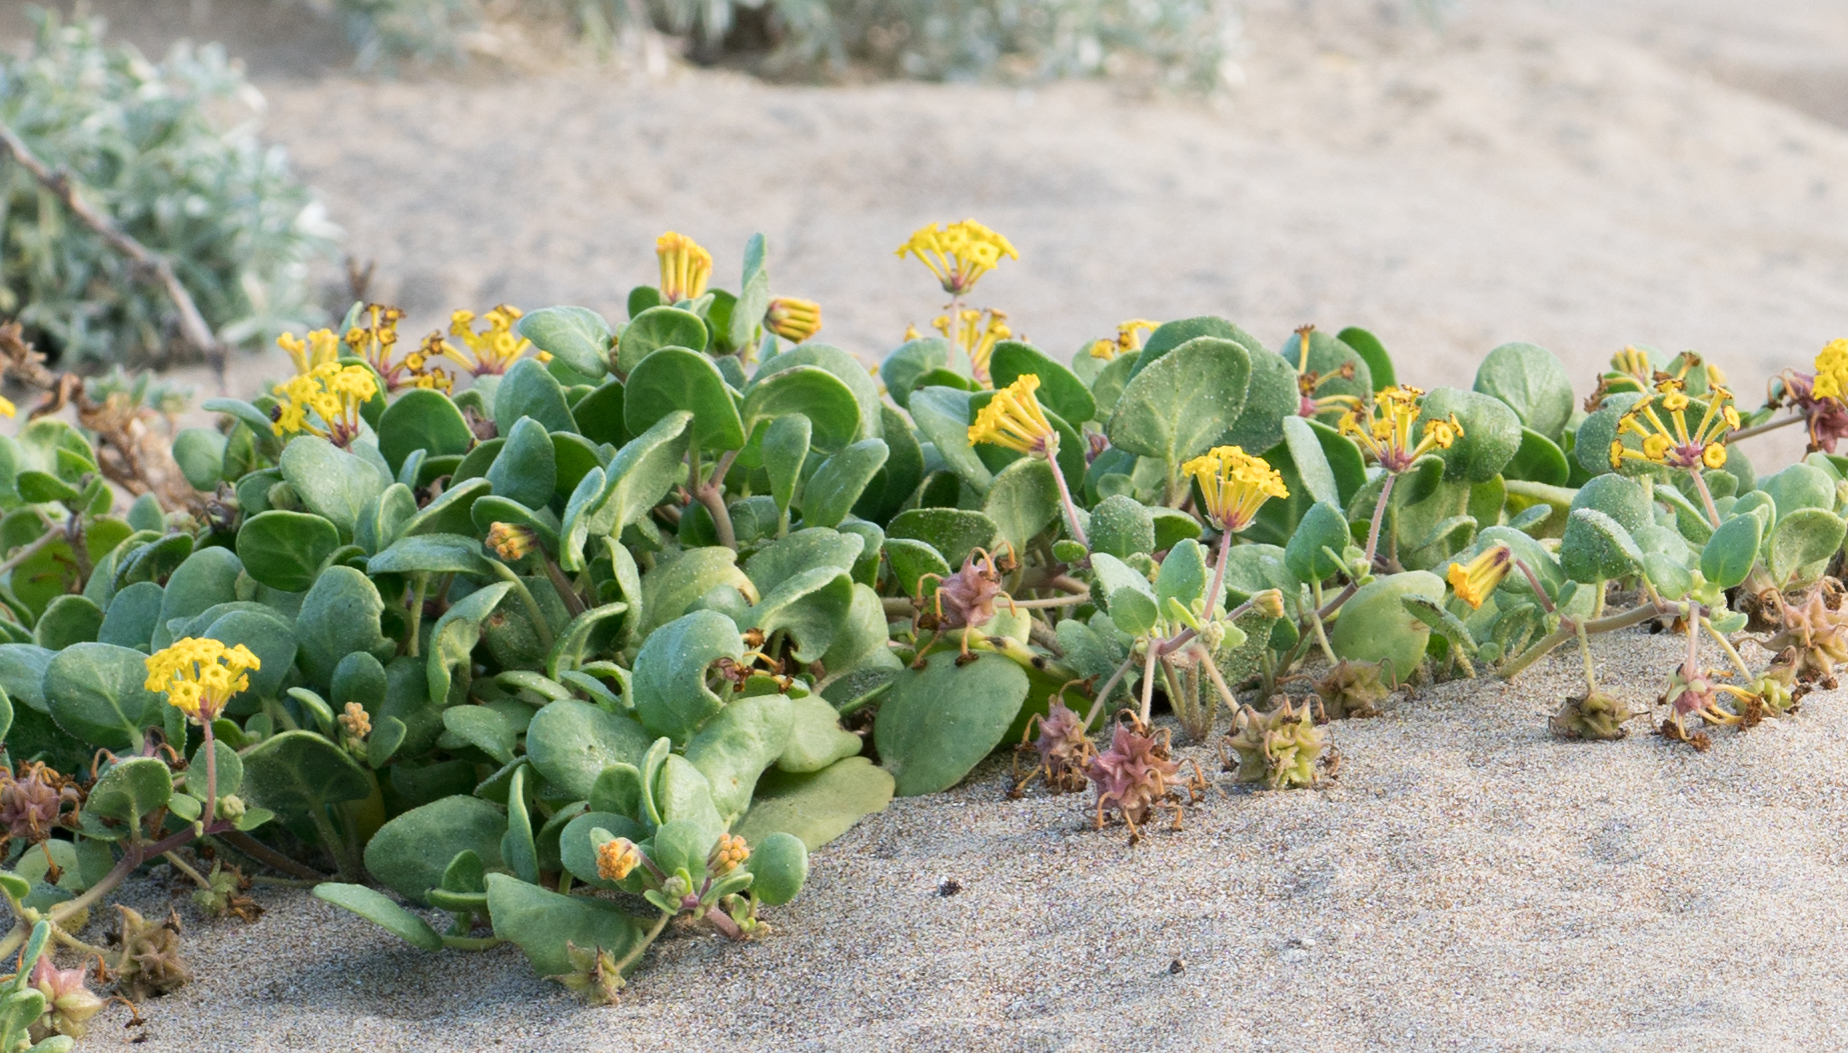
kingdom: Plantae
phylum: Tracheophyta
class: Magnoliopsida
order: Caryophyllales
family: Nyctaginaceae
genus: Abronia
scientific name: Abronia latifolia
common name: Yellow sand-verbena
